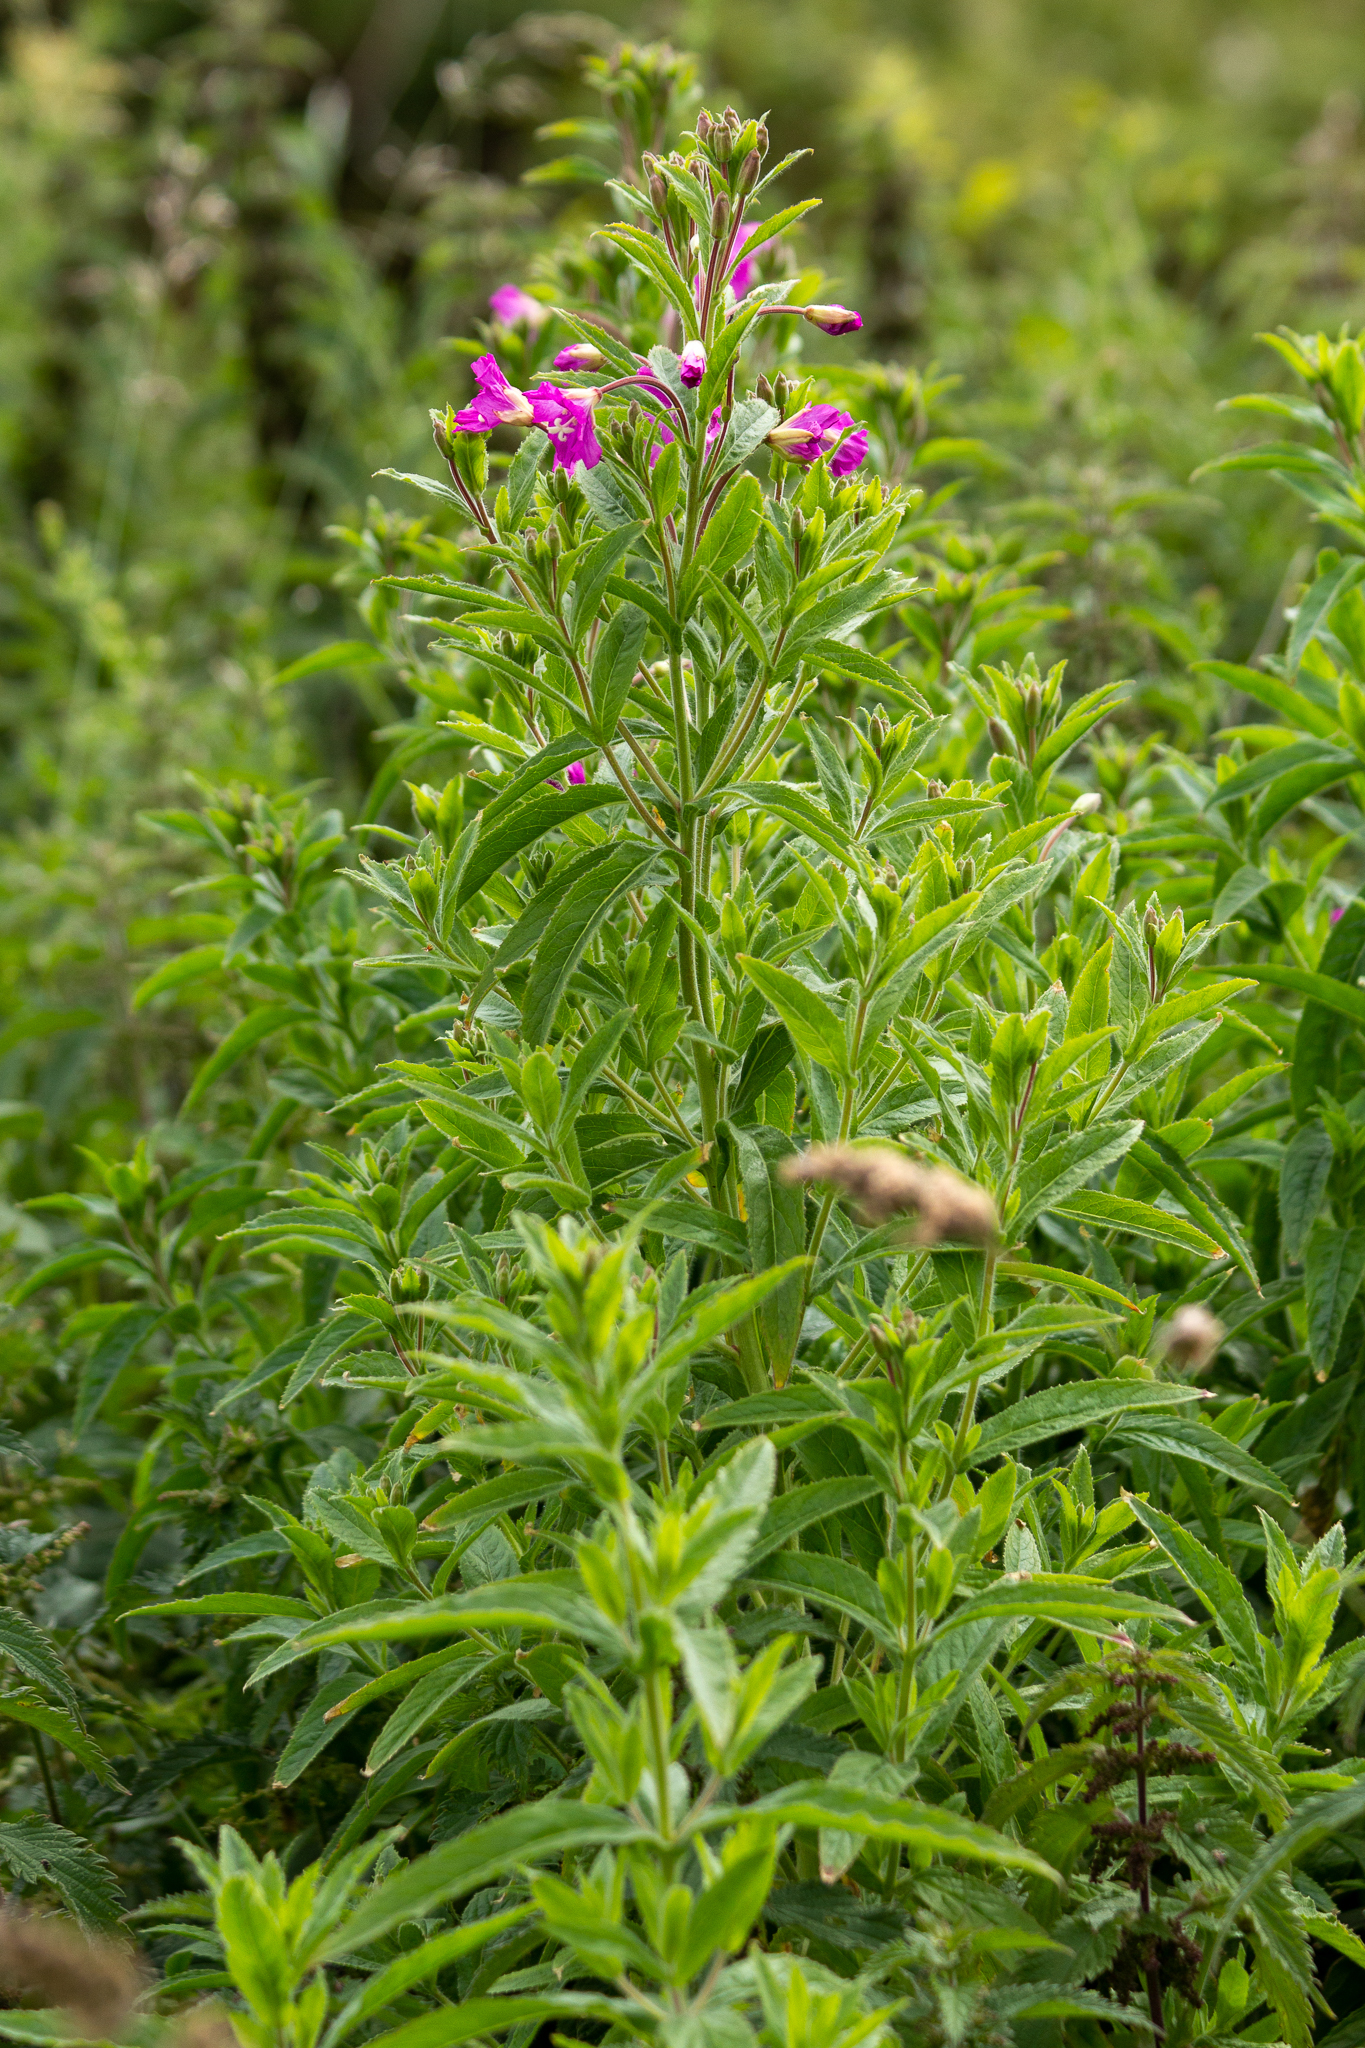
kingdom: Plantae
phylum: Tracheophyta
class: Magnoliopsida
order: Myrtales
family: Onagraceae
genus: Epilobium
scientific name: Epilobium hirsutum
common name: Great willowherb
